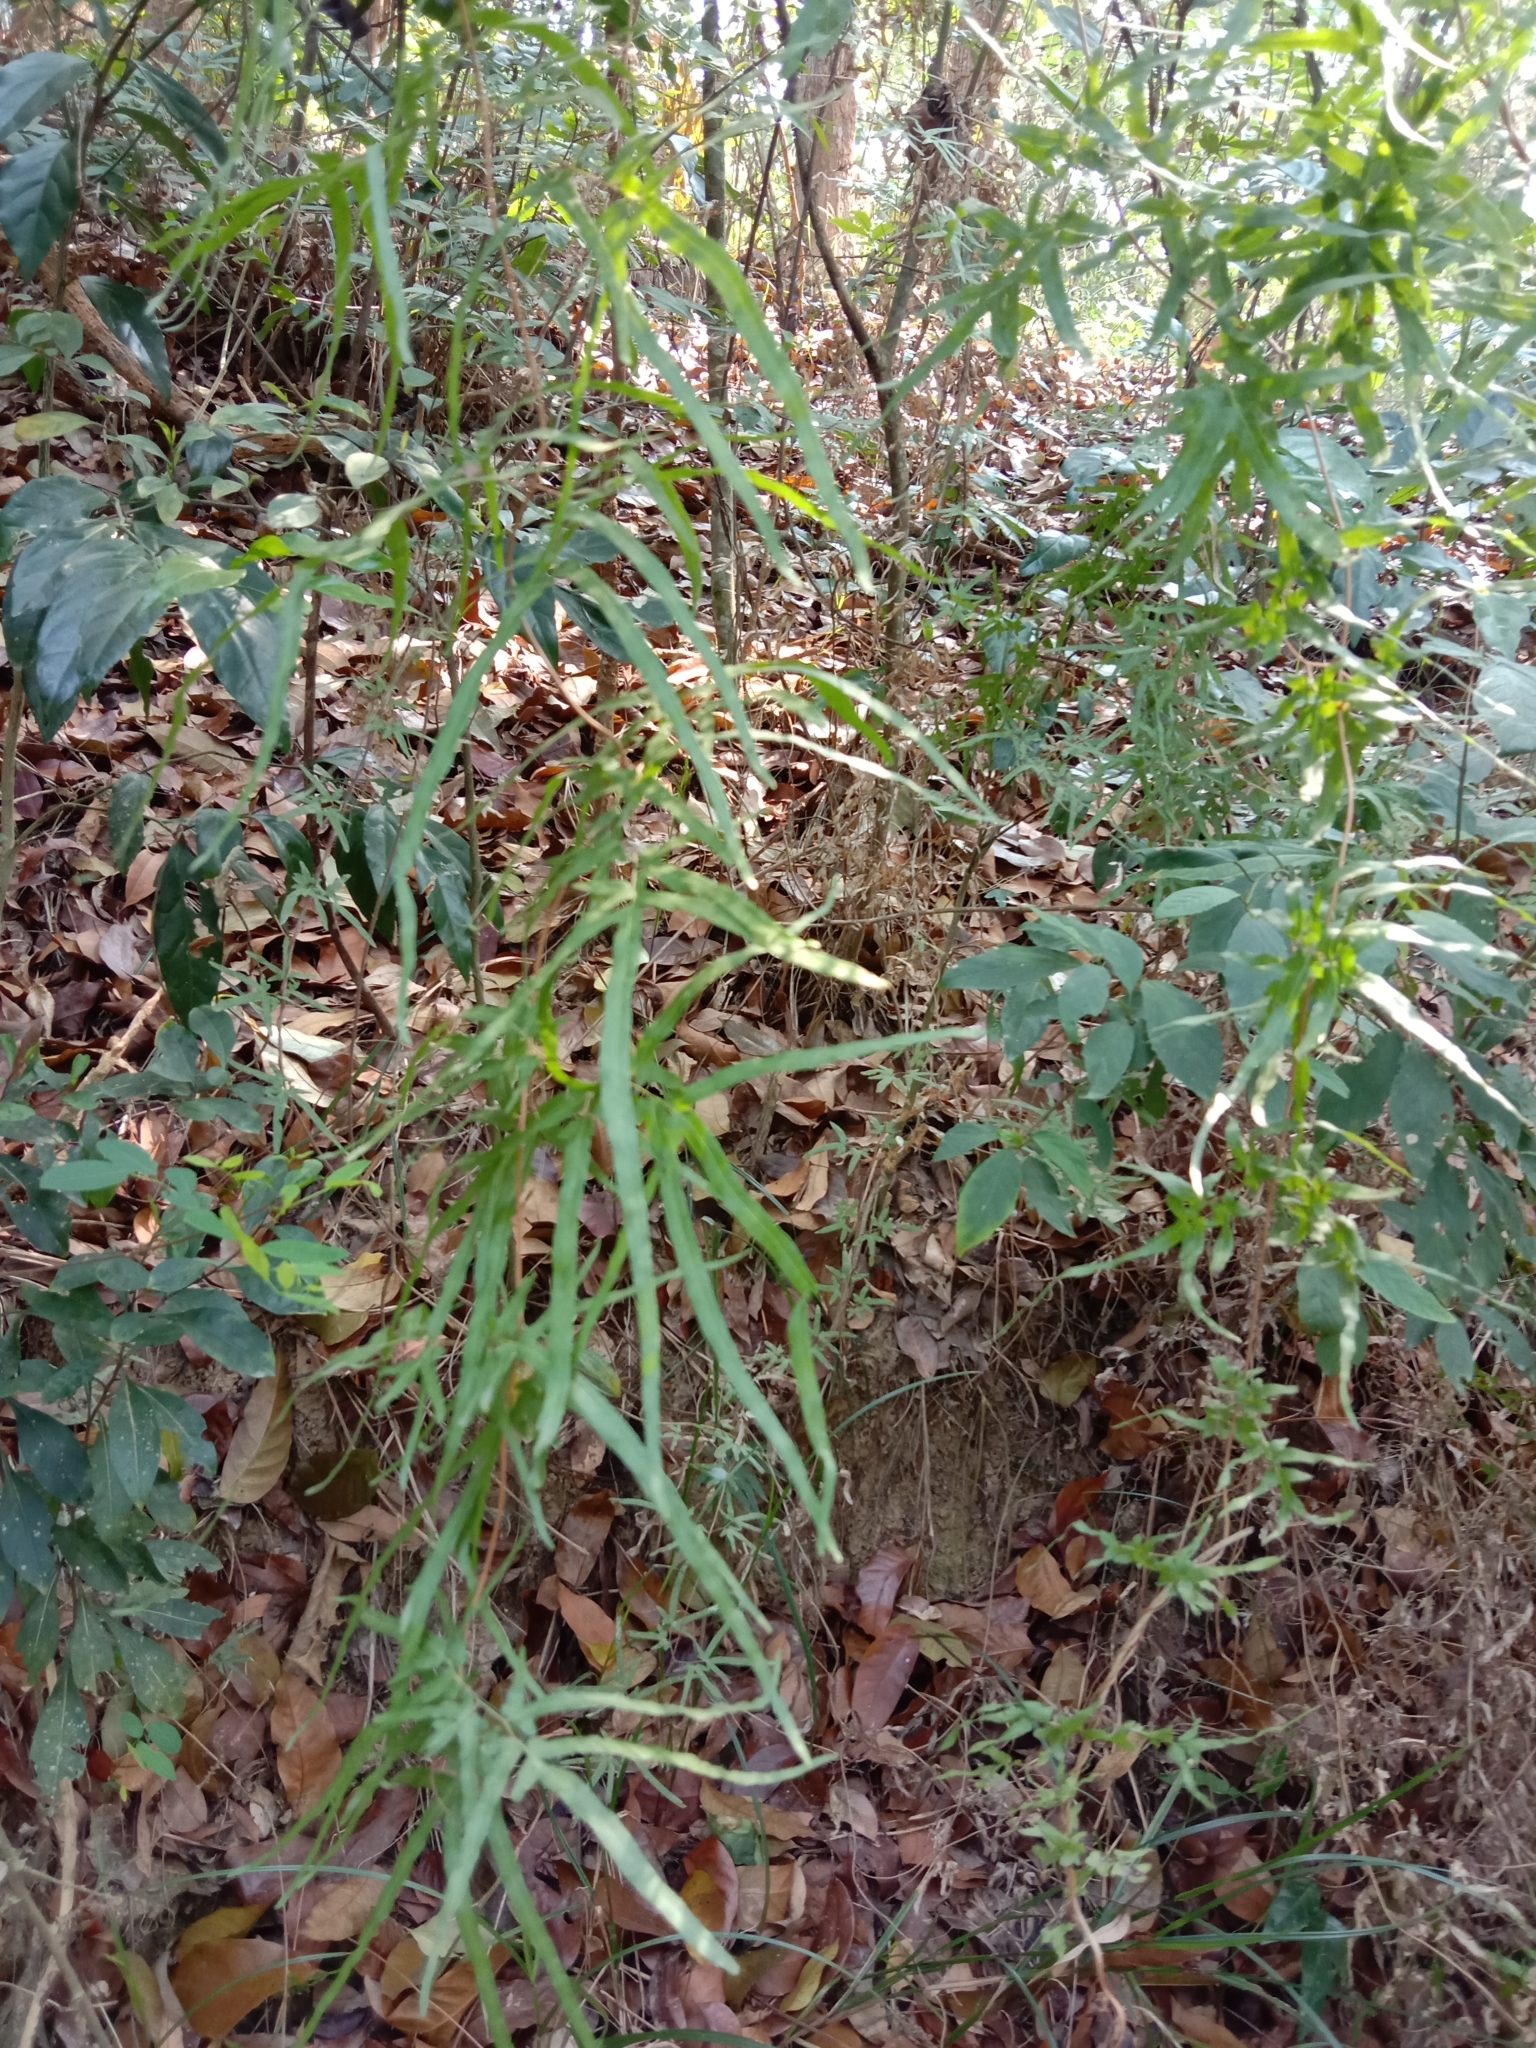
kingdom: Plantae
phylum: Tracheophyta
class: Polypodiopsida
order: Schizaeales
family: Lygodiaceae
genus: Lygodium
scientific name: Lygodium japonicum
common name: Japanese climbing fern
